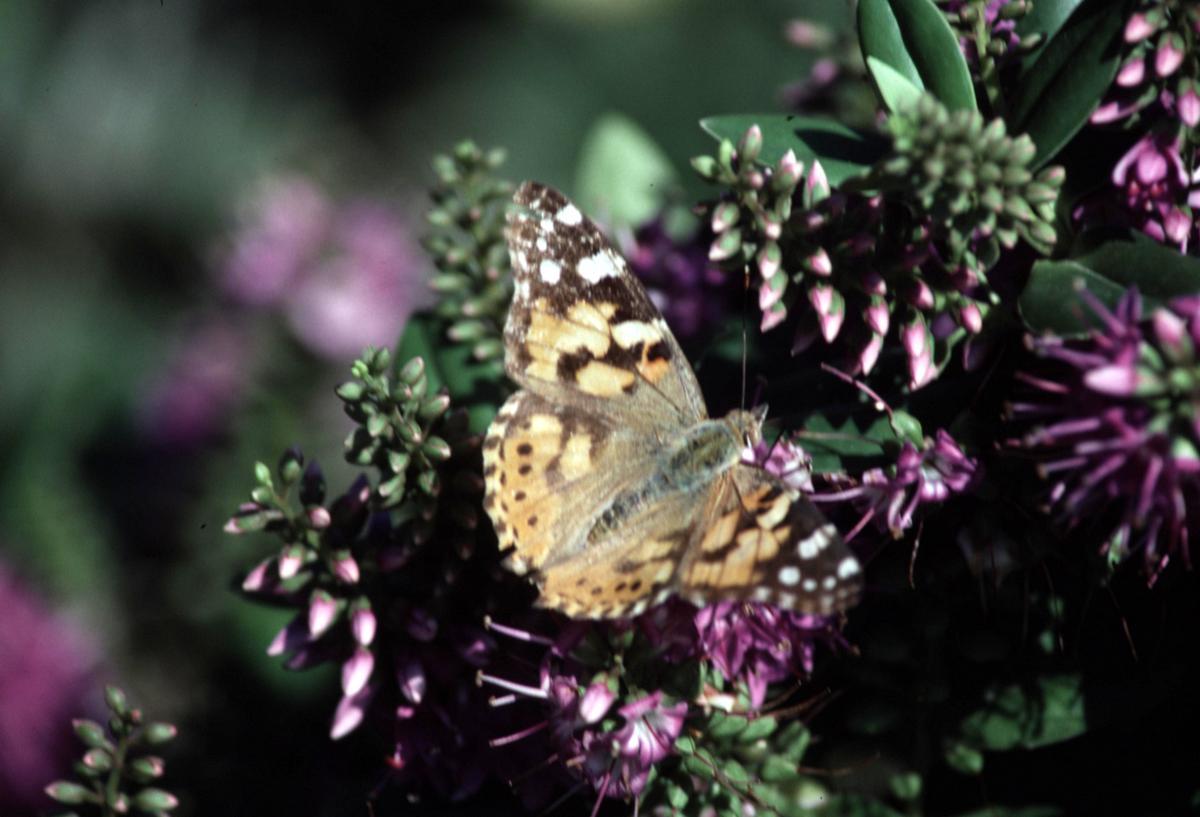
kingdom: Animalia
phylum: Arthropoda
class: Insecta
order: Lepidoptera
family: Nymphalidae
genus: Vanessa
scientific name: Vanessa cardui
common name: Painted lady
